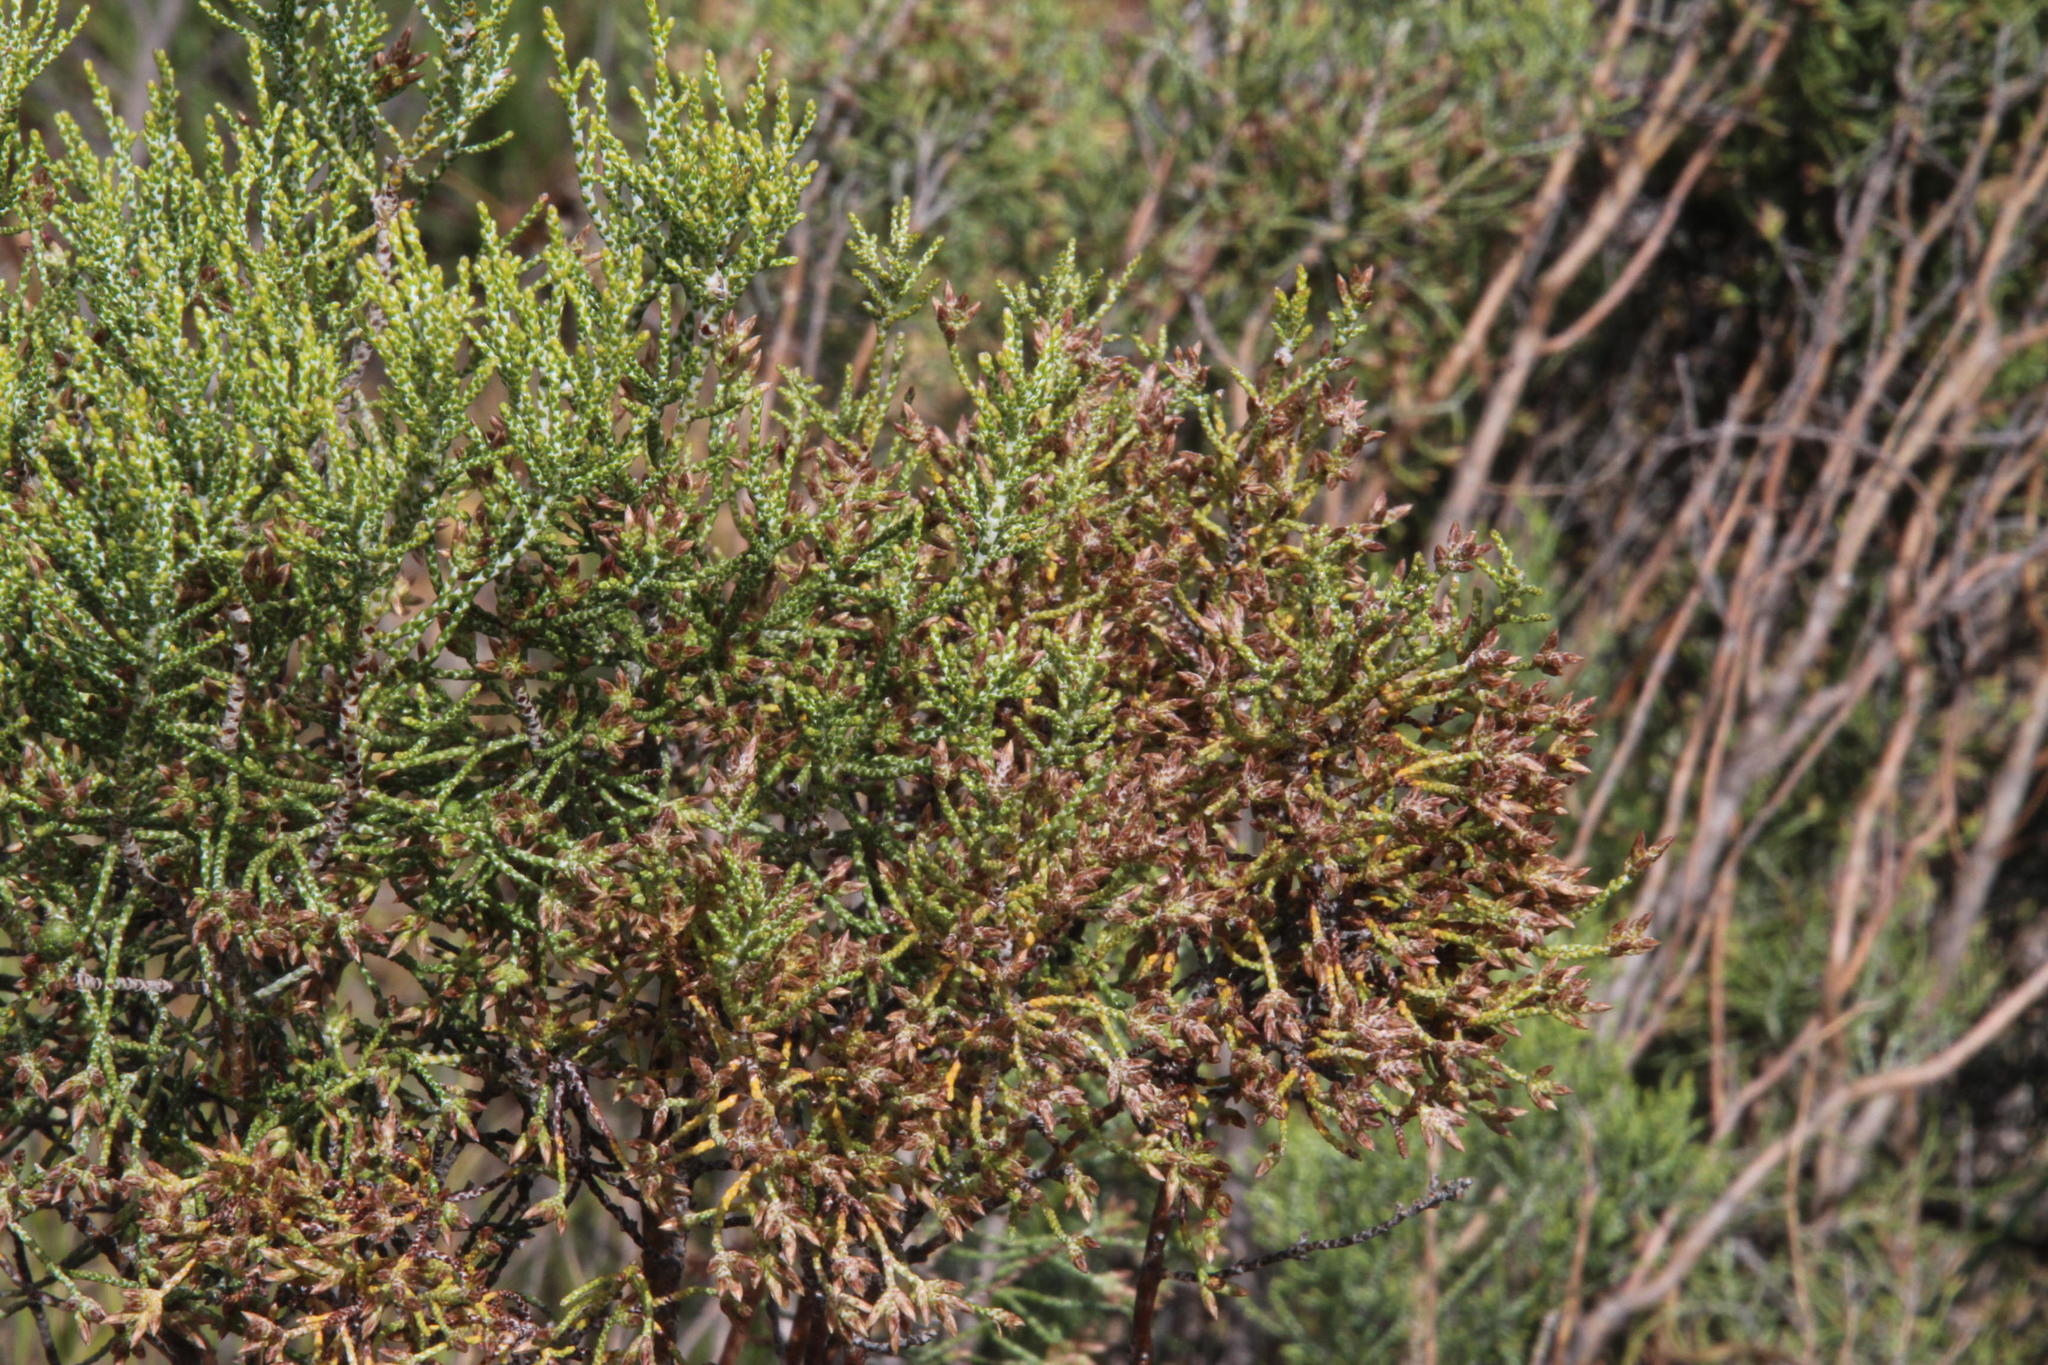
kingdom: Plantae
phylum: Tracheophyta
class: Magnoliopsida
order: Asterales
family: Asteraceae
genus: Dicerothamnus
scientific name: Dicerothamnus rhinocerotis
